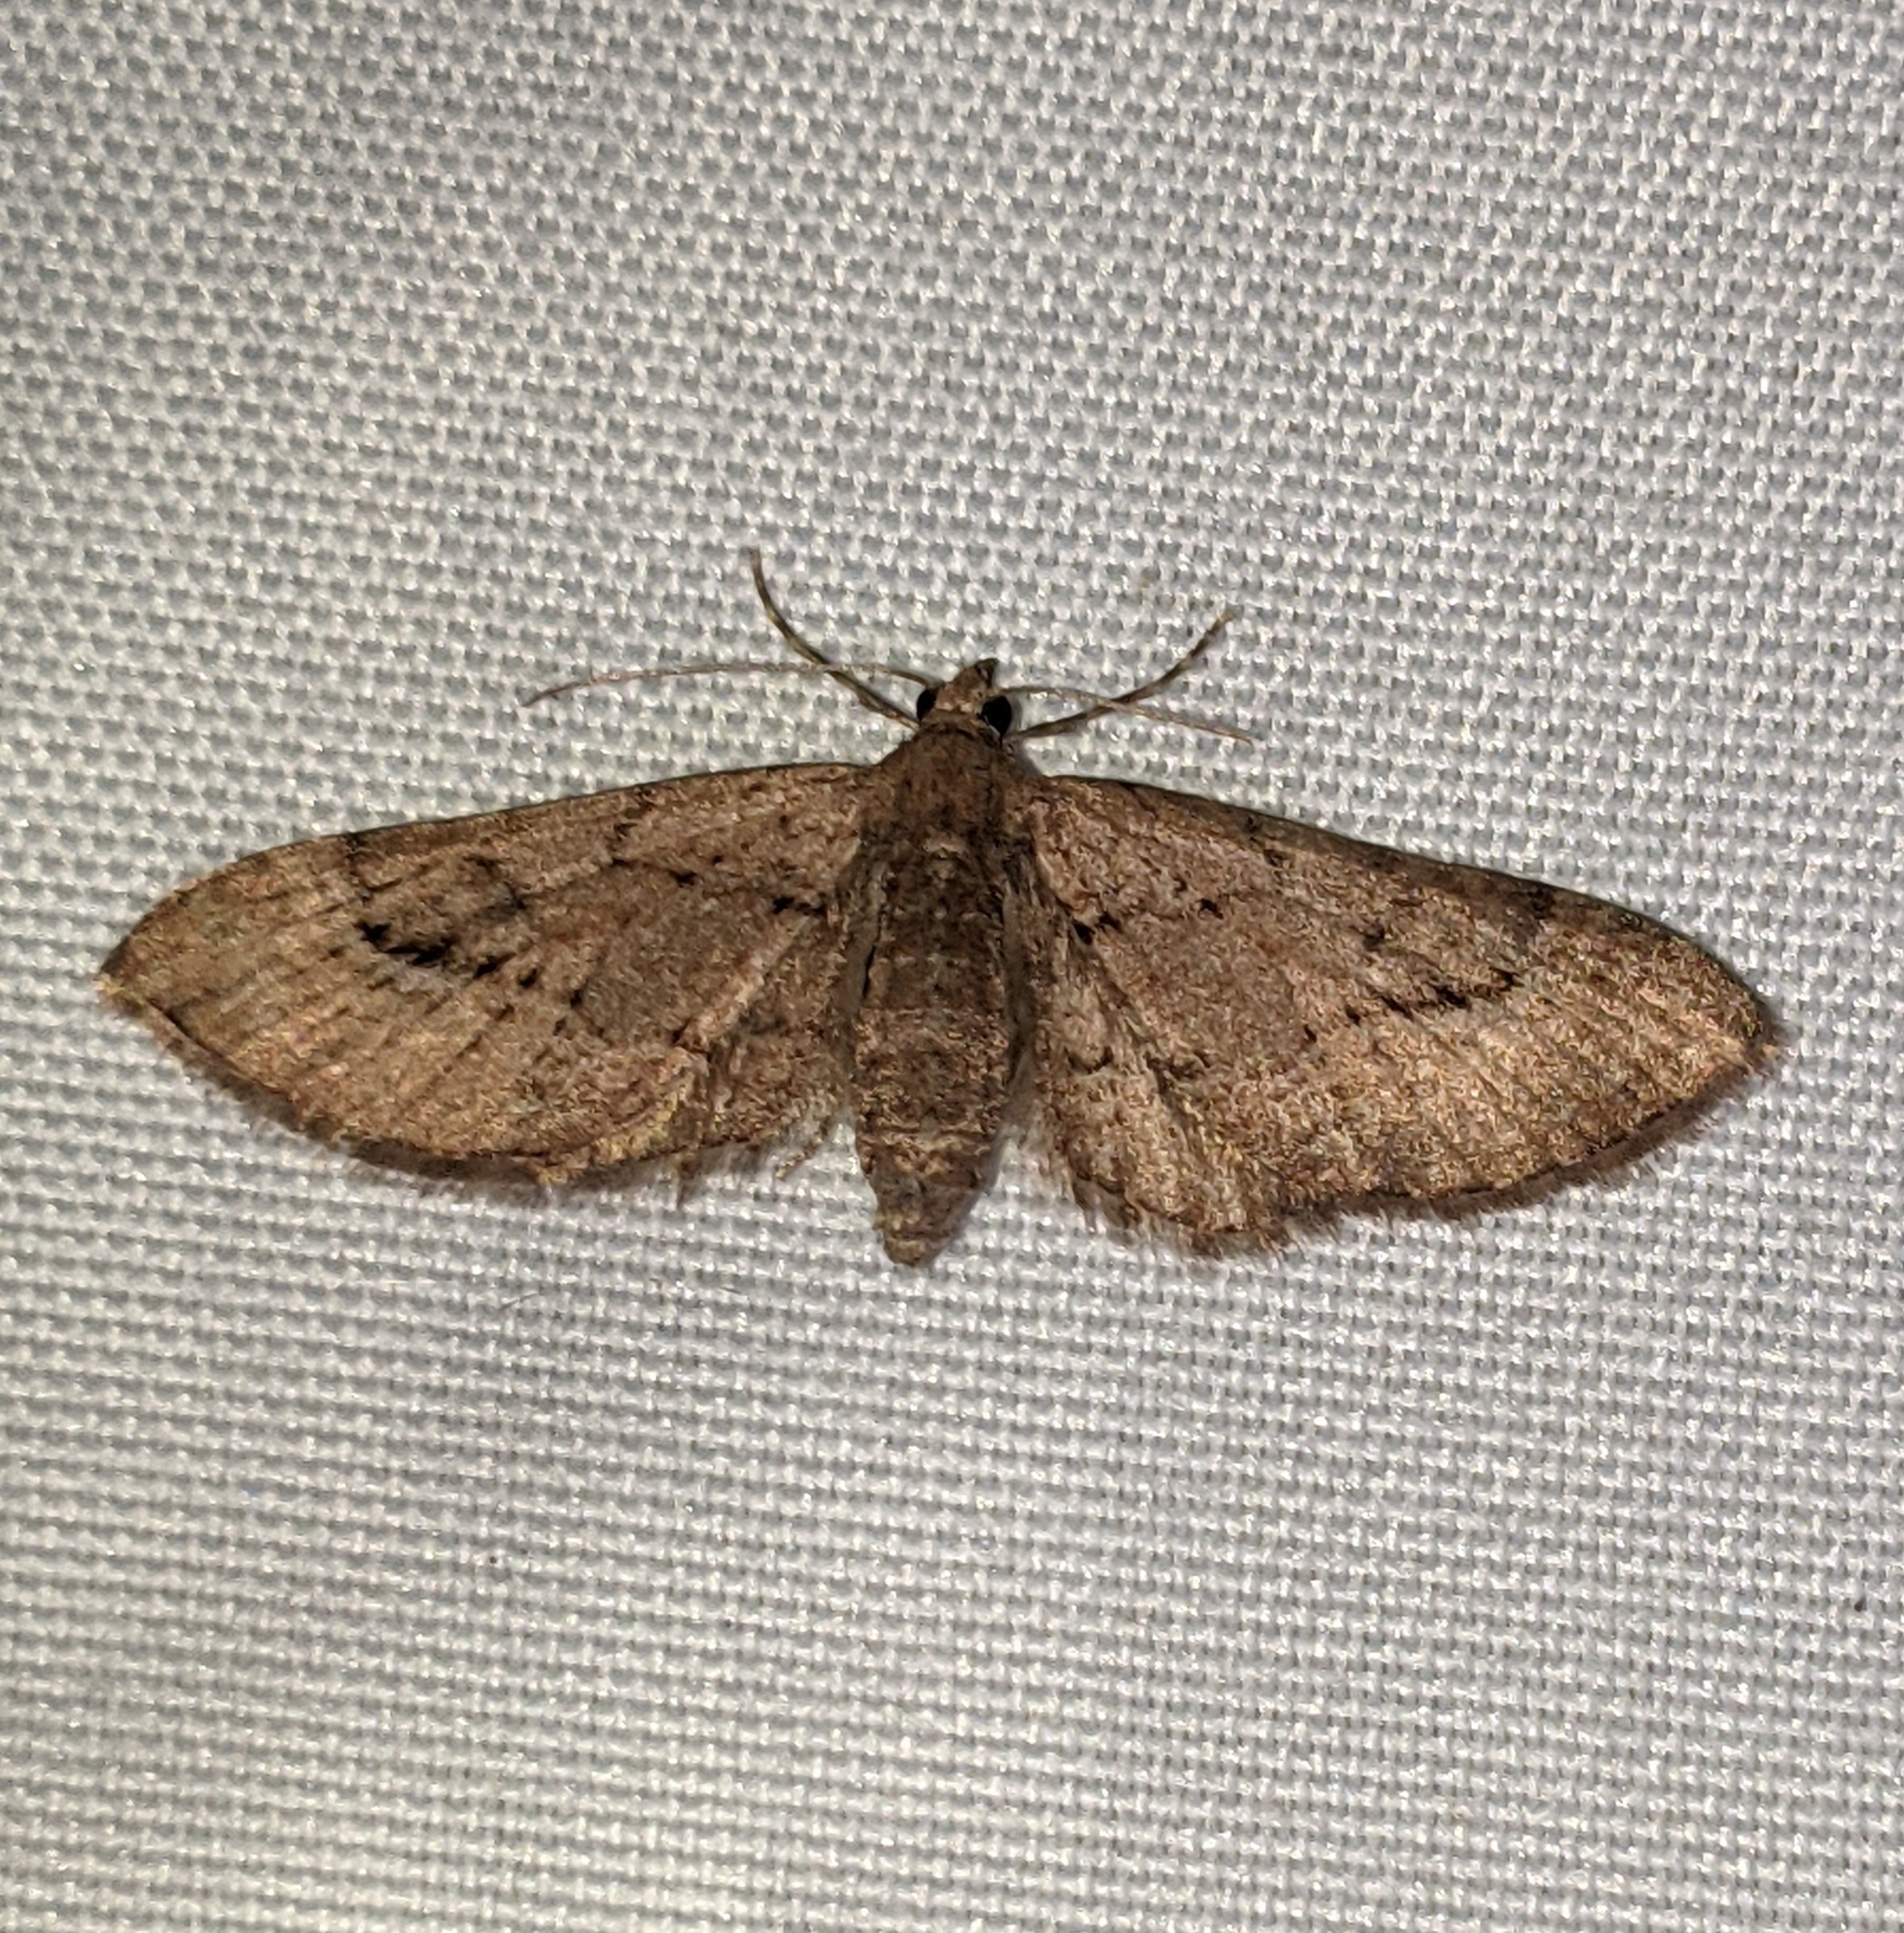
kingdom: Animalia
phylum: Arthropoda
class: Insecta
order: Lepidoptera
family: Geometridae
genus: Eupithecia
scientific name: Eupithecia unicolor
